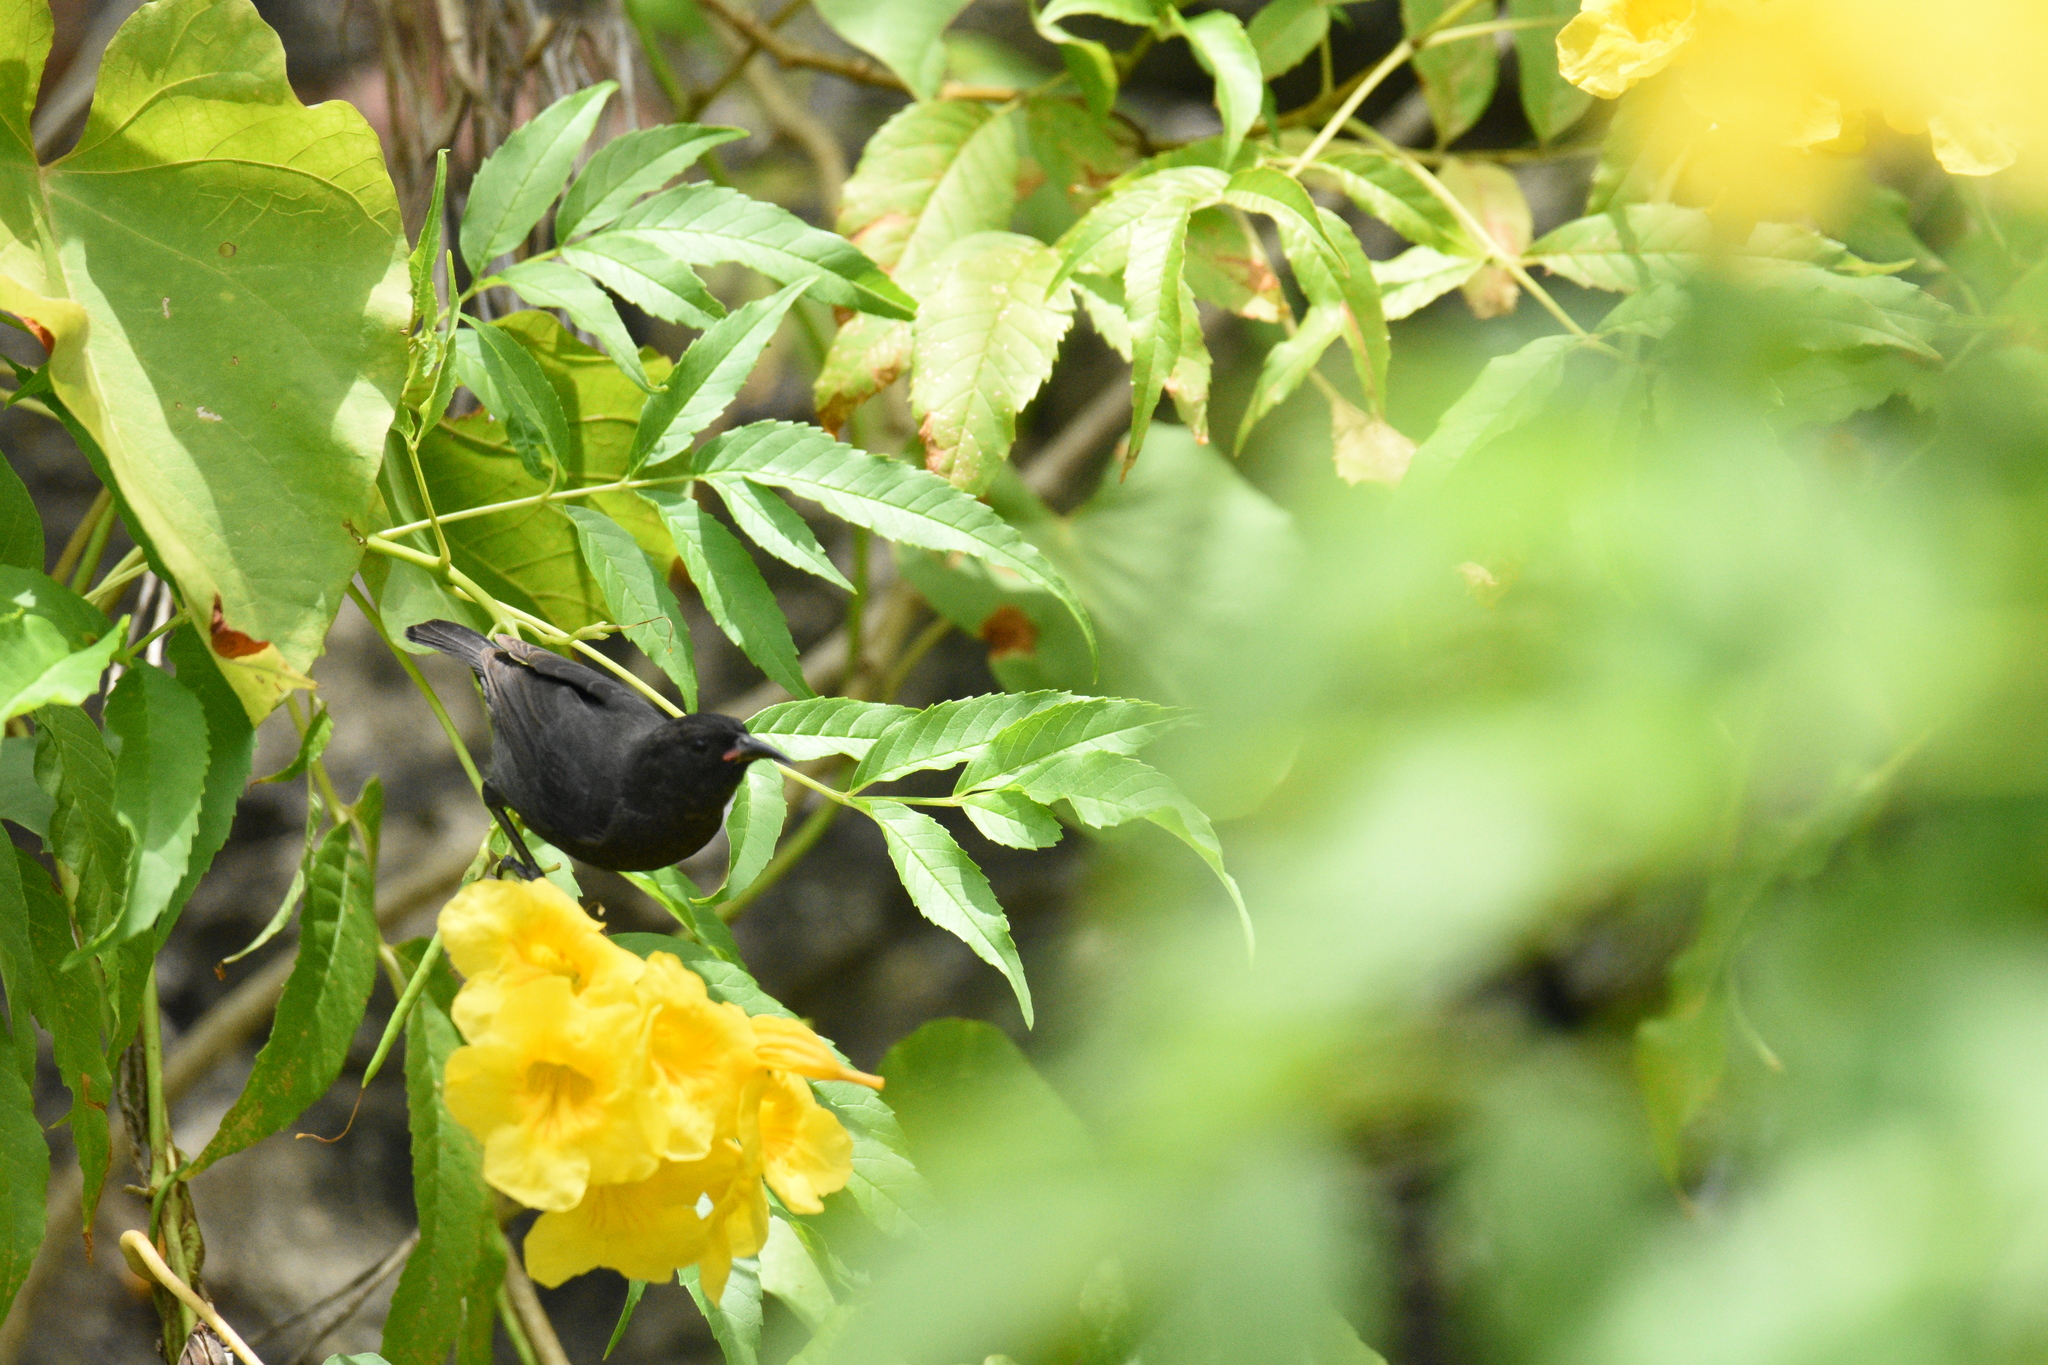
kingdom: Animalia
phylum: Chordata
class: Aves
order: Passeriformes
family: Thraupidae
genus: Coereba
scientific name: Coereba flaveola
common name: Bananaquit
